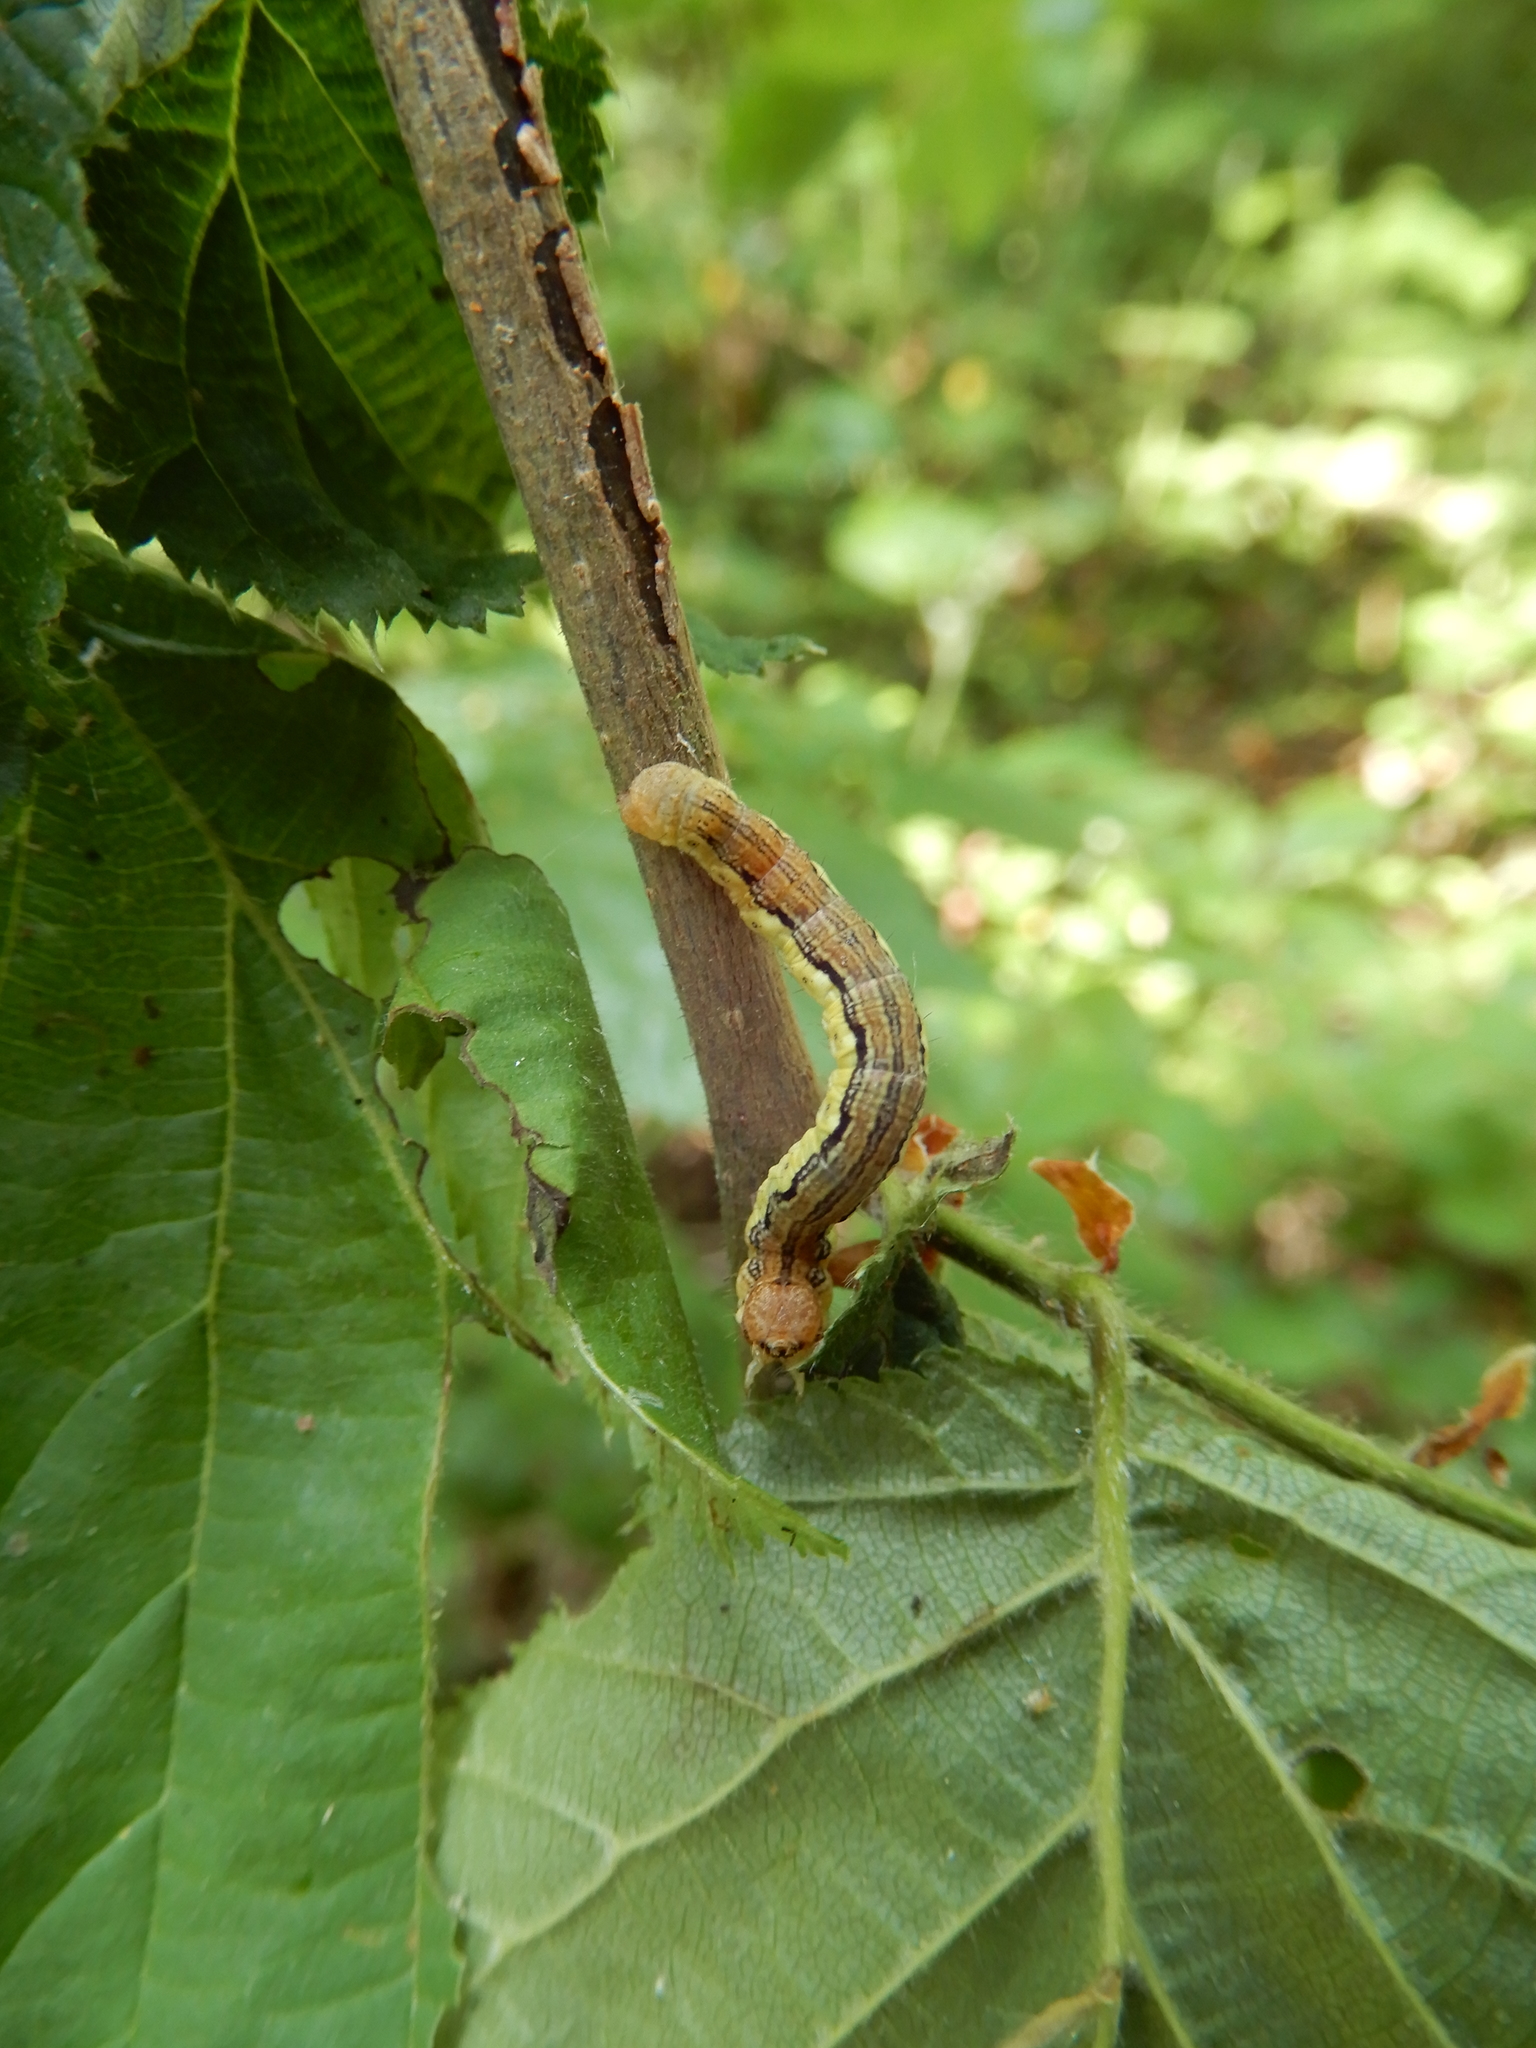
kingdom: Animalia
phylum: Arthropoda
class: Insecta
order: Lepidoptera
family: Geometridae
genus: Erannis
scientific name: Erannis defoliaria
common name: Mottled umber
